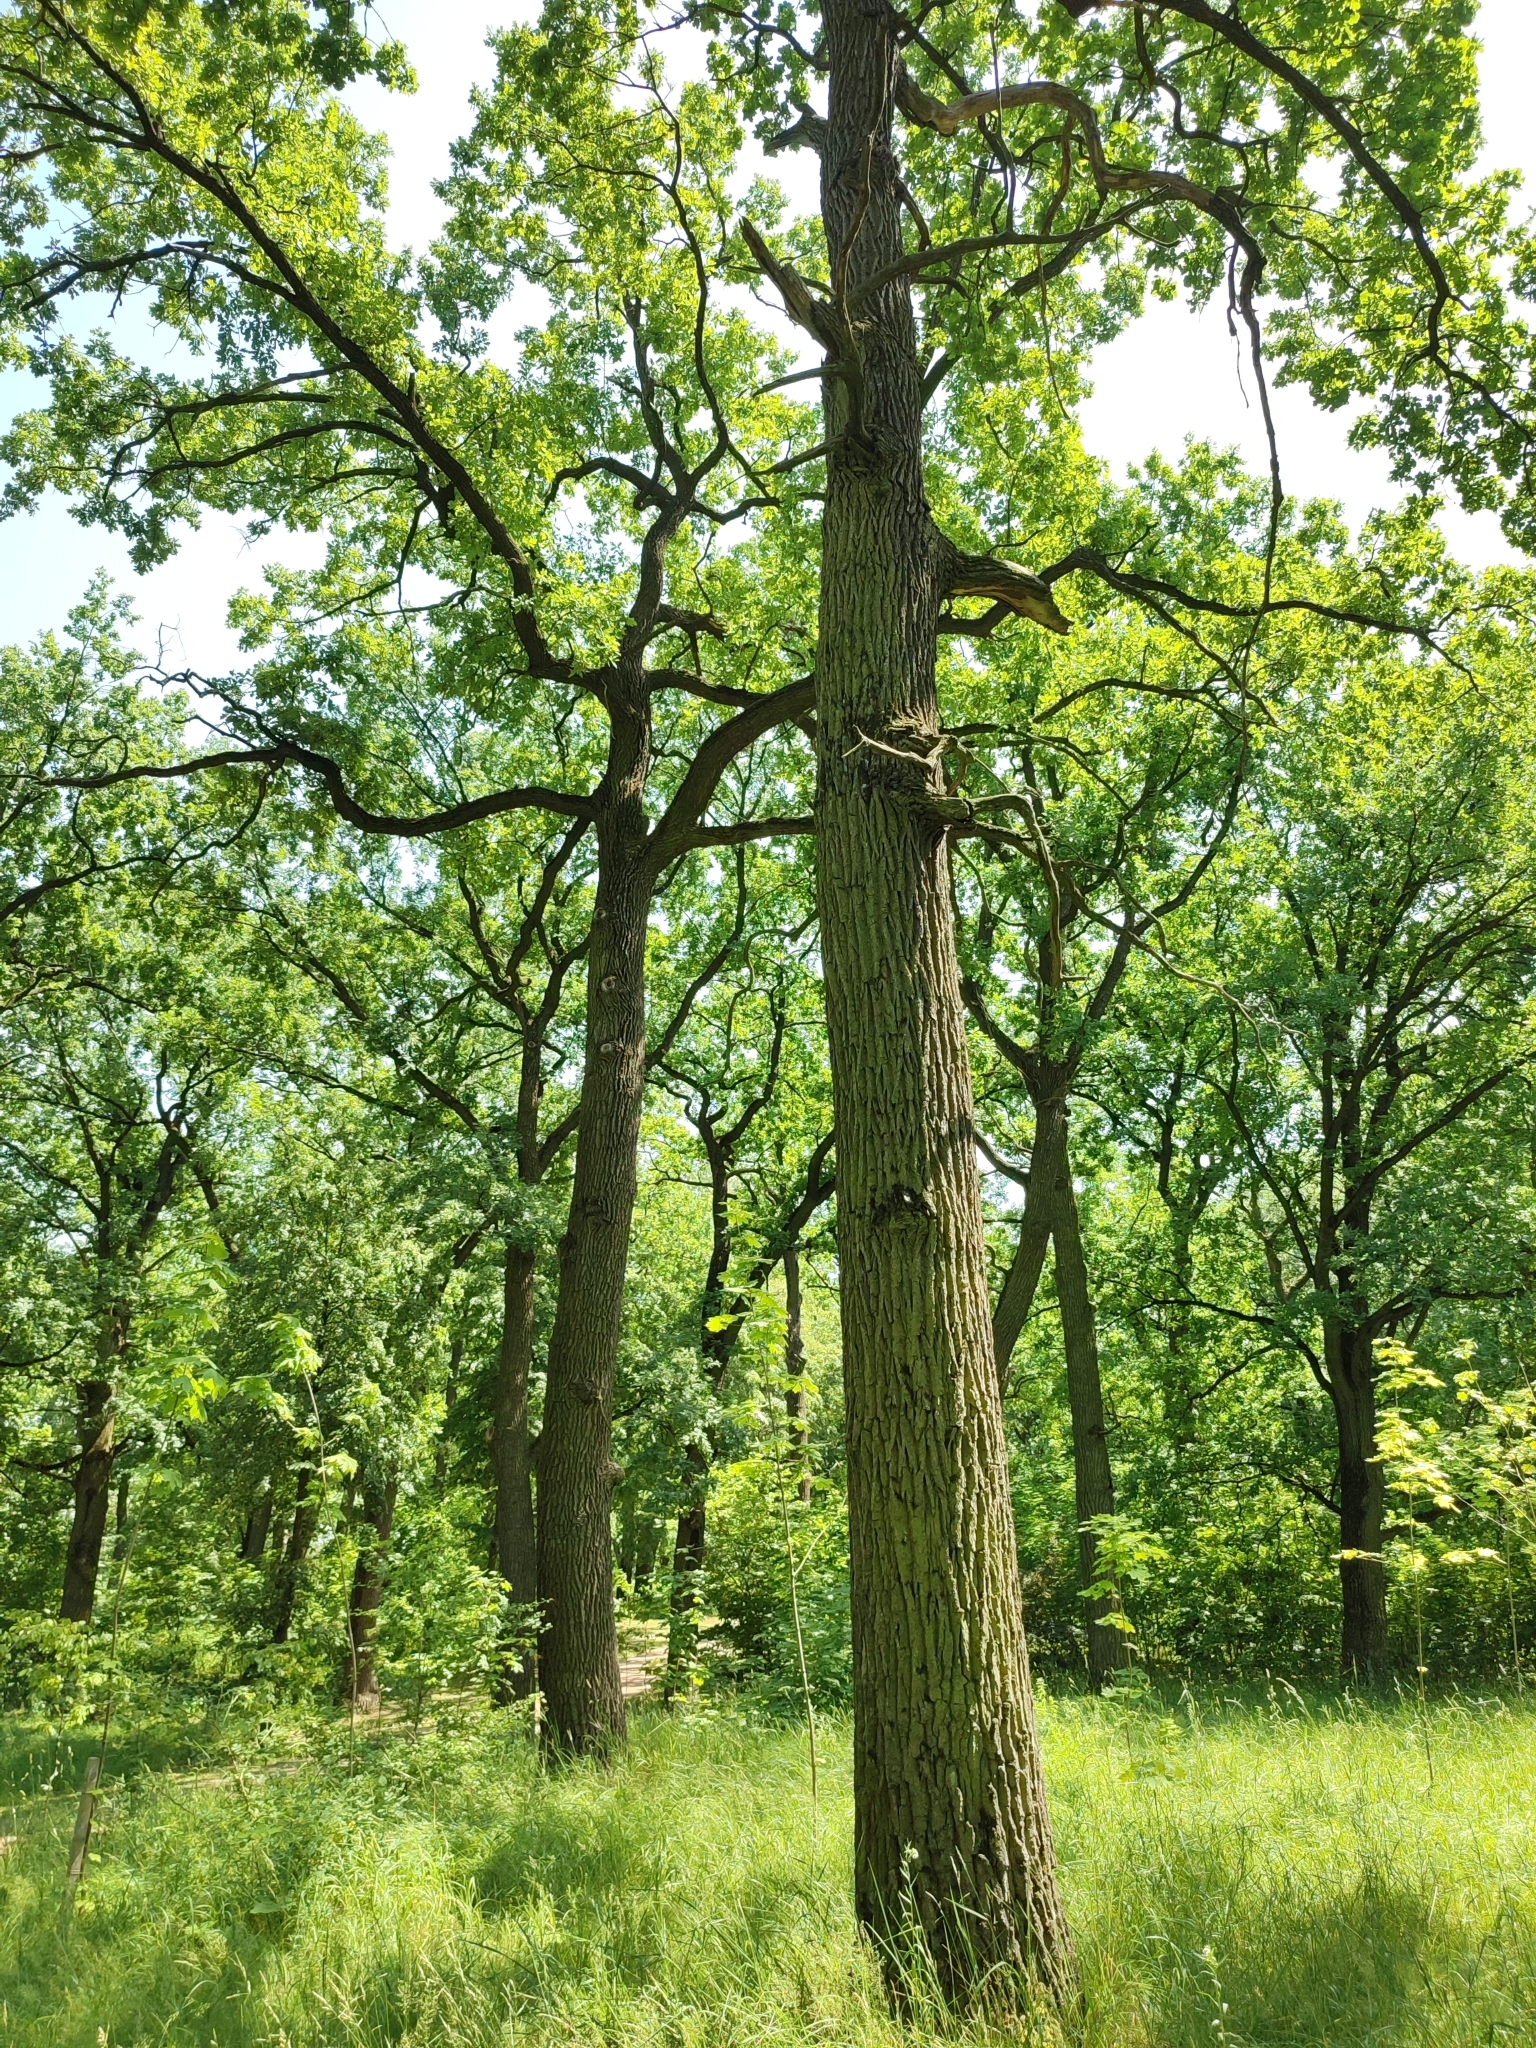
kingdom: Plantae
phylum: Tracheophyta
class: Magnoliopsida
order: Fagales
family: Fagaceae
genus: Quercus
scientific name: Quercus robur
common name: Pedunculate oak
